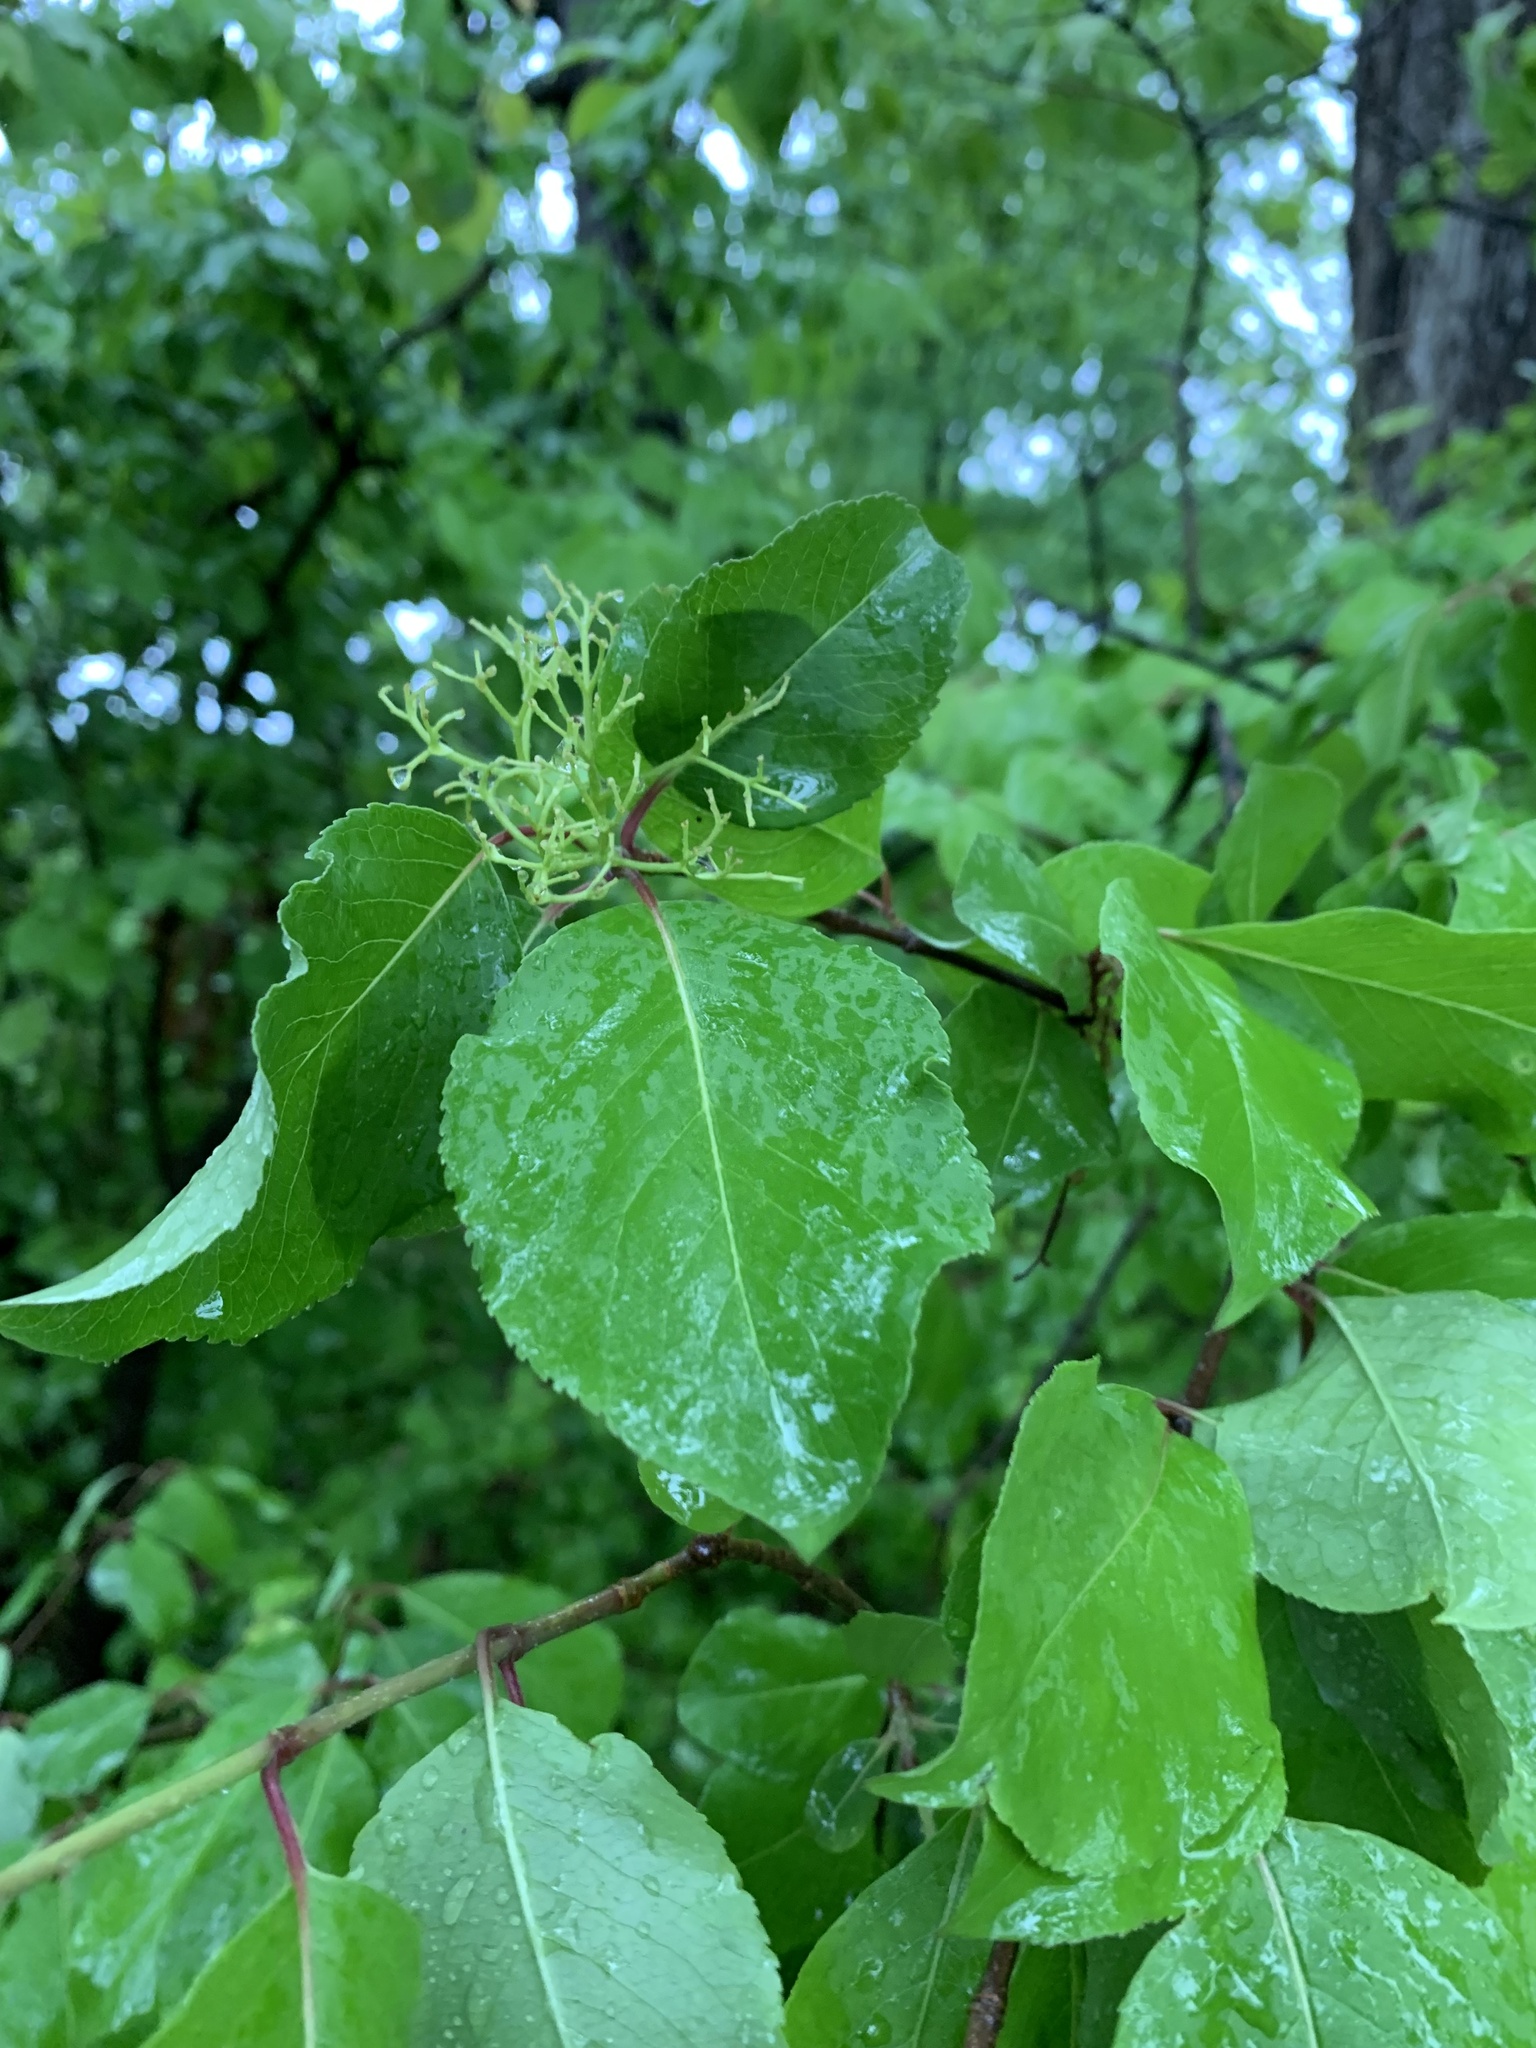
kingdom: Plantae
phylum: Tracheophyta
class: Magnoliopsida
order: Dipsacales
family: Viburnaceae
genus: Viburnum
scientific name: Viburnum prunifolium
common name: Black haw
